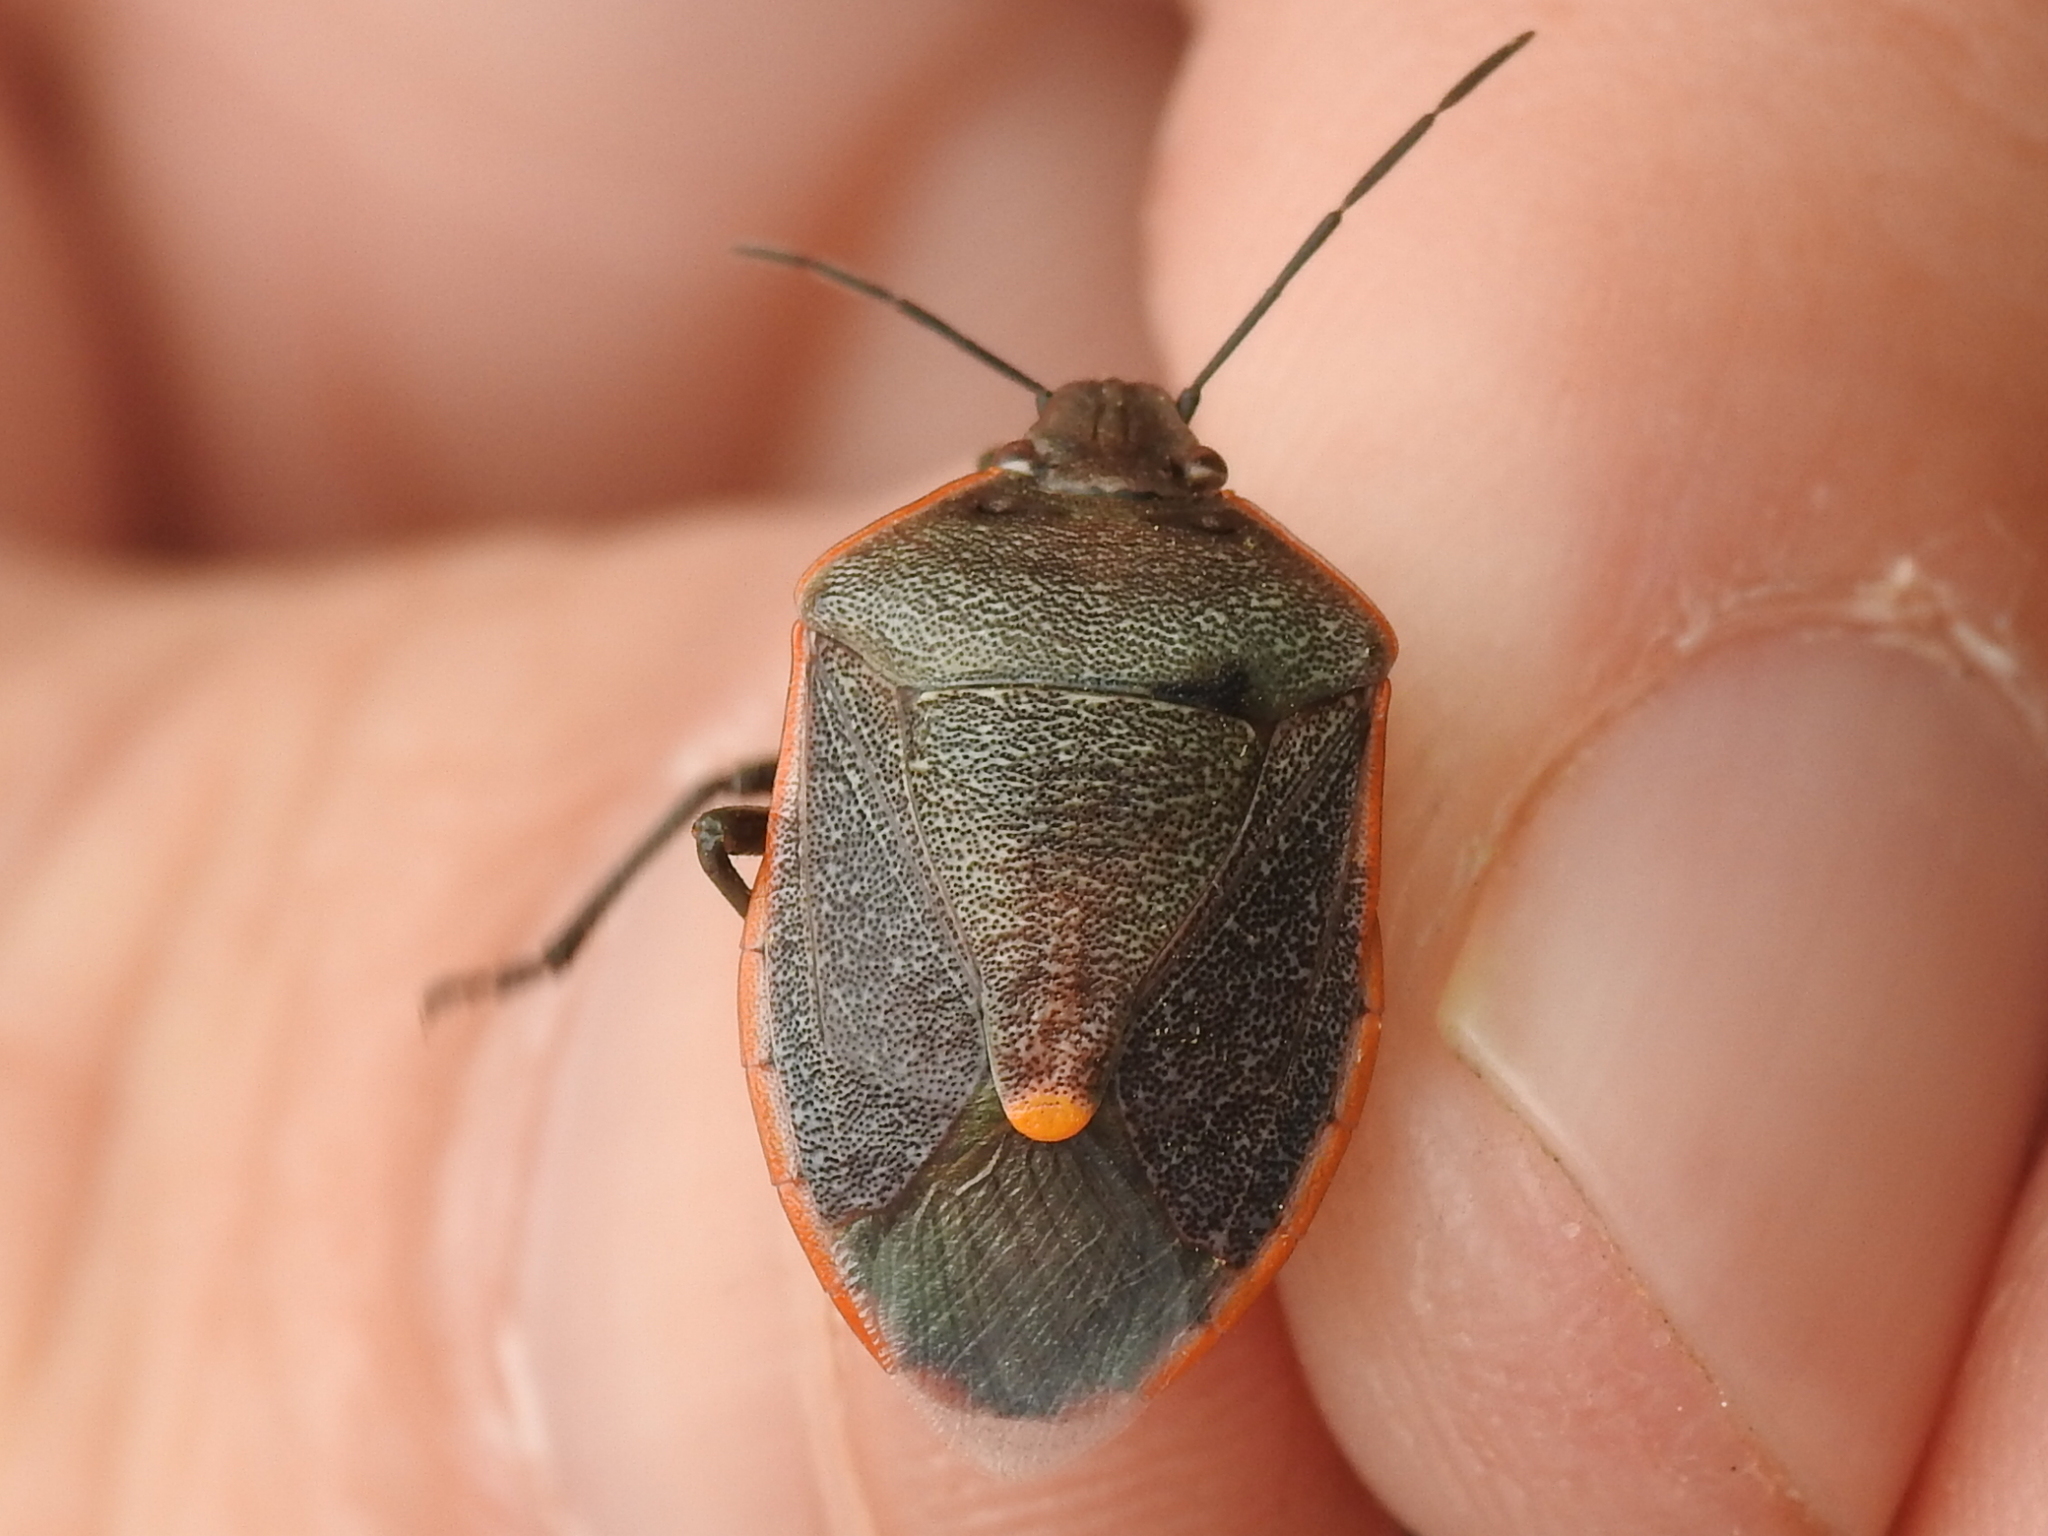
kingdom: Animalia
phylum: Arthropoda
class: Insecta
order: Hemiptera
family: Pentatomidae
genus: Chlorochroa
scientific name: Chlorochroa ligata
